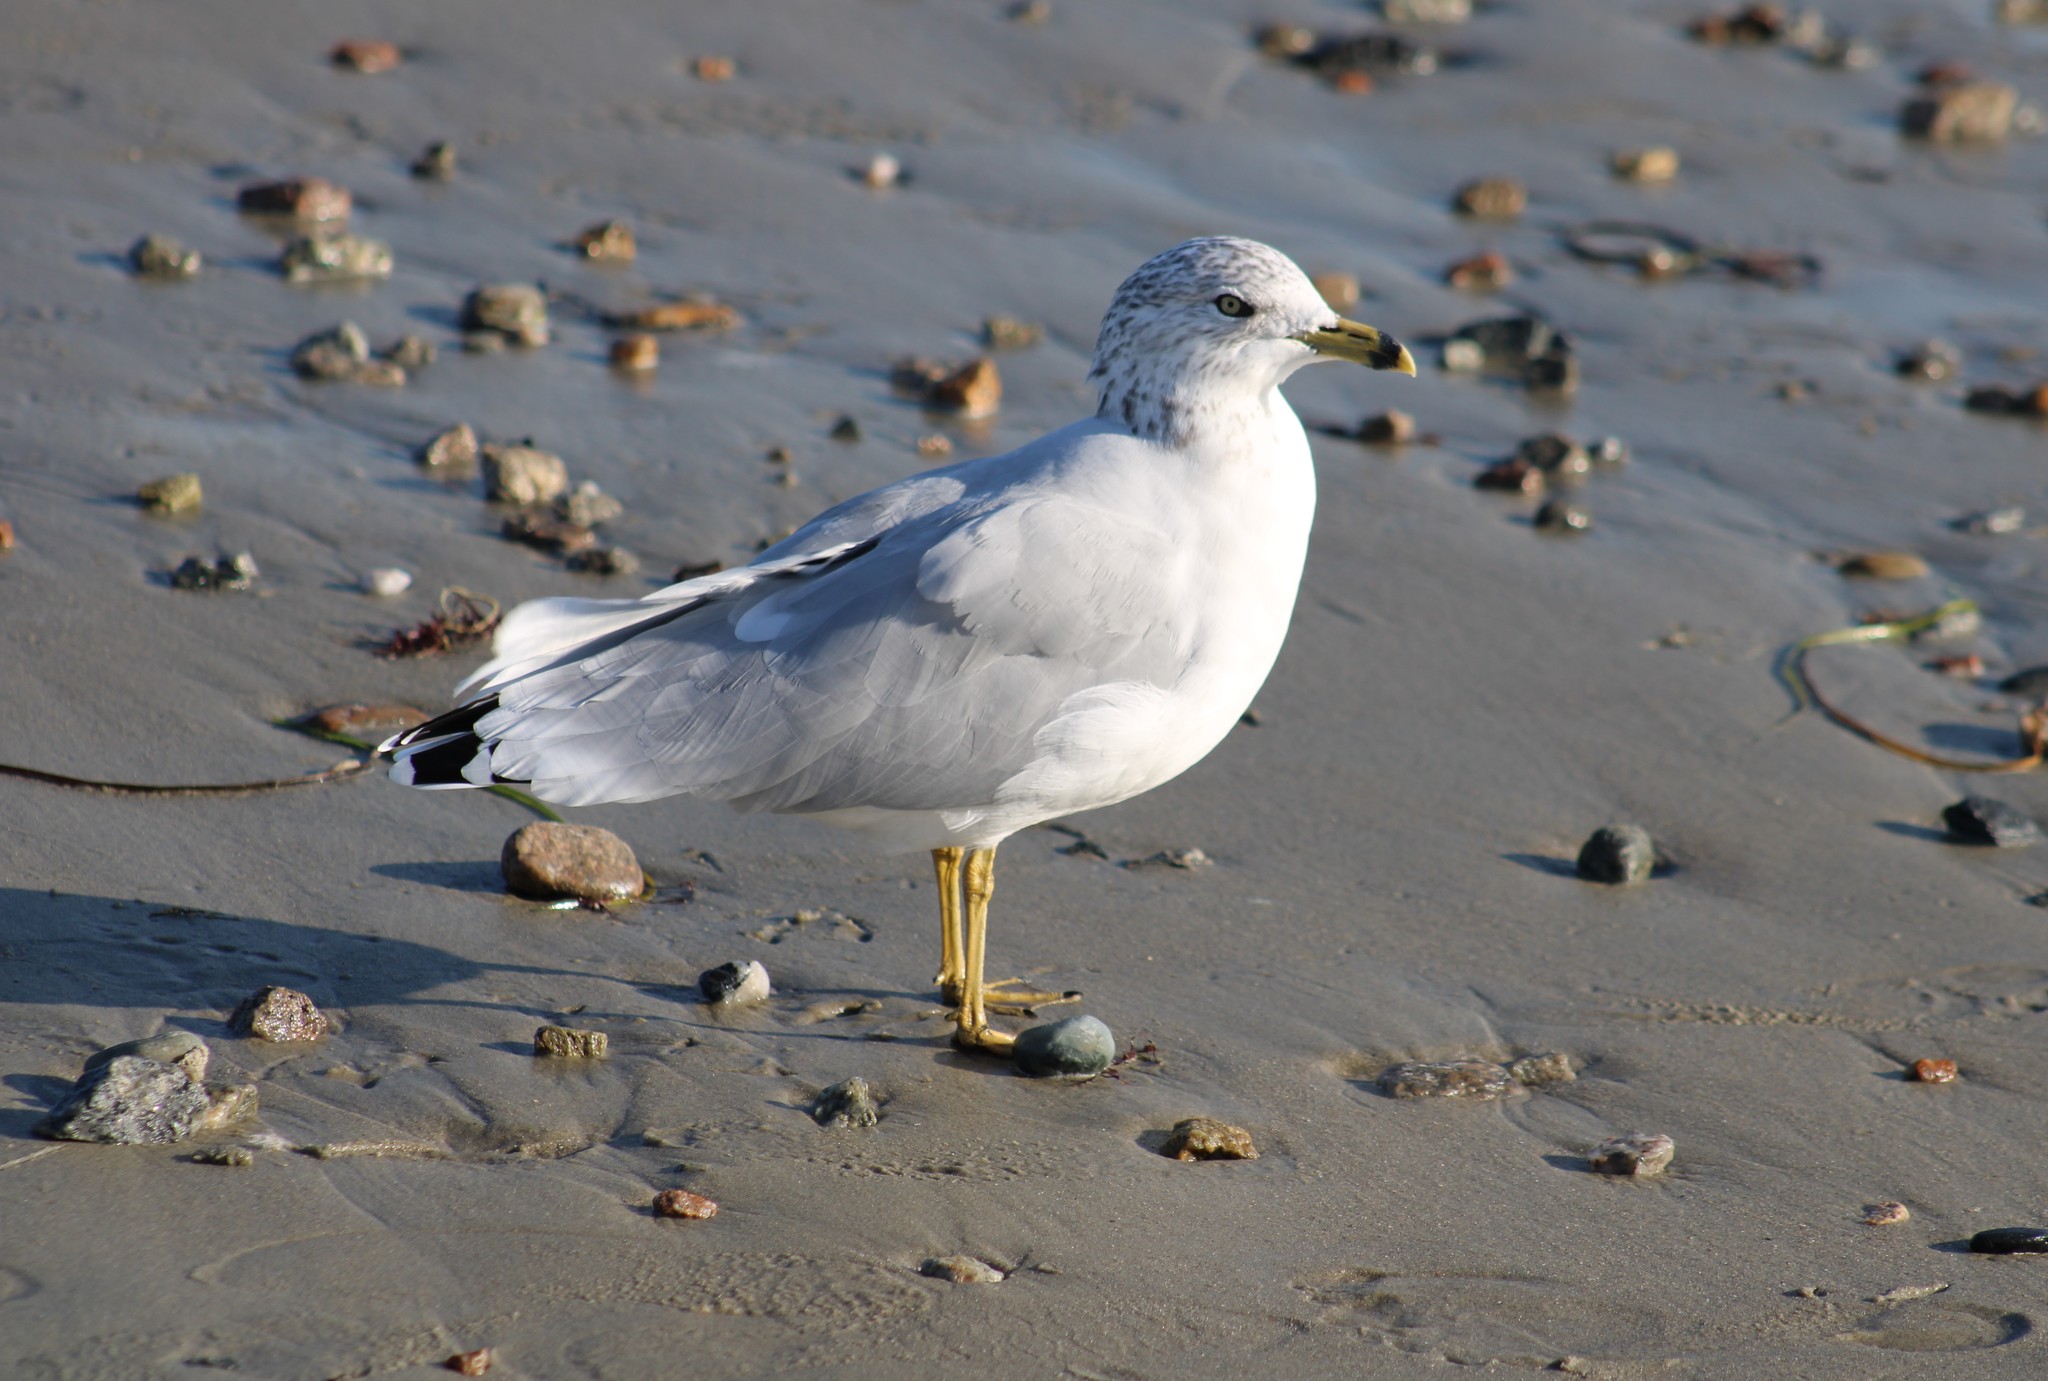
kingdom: Animalia
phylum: Chordata
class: Aves
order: Charadriiformes
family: Laridae
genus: Larus
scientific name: Larus delawarensis
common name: Ring-billed gull
